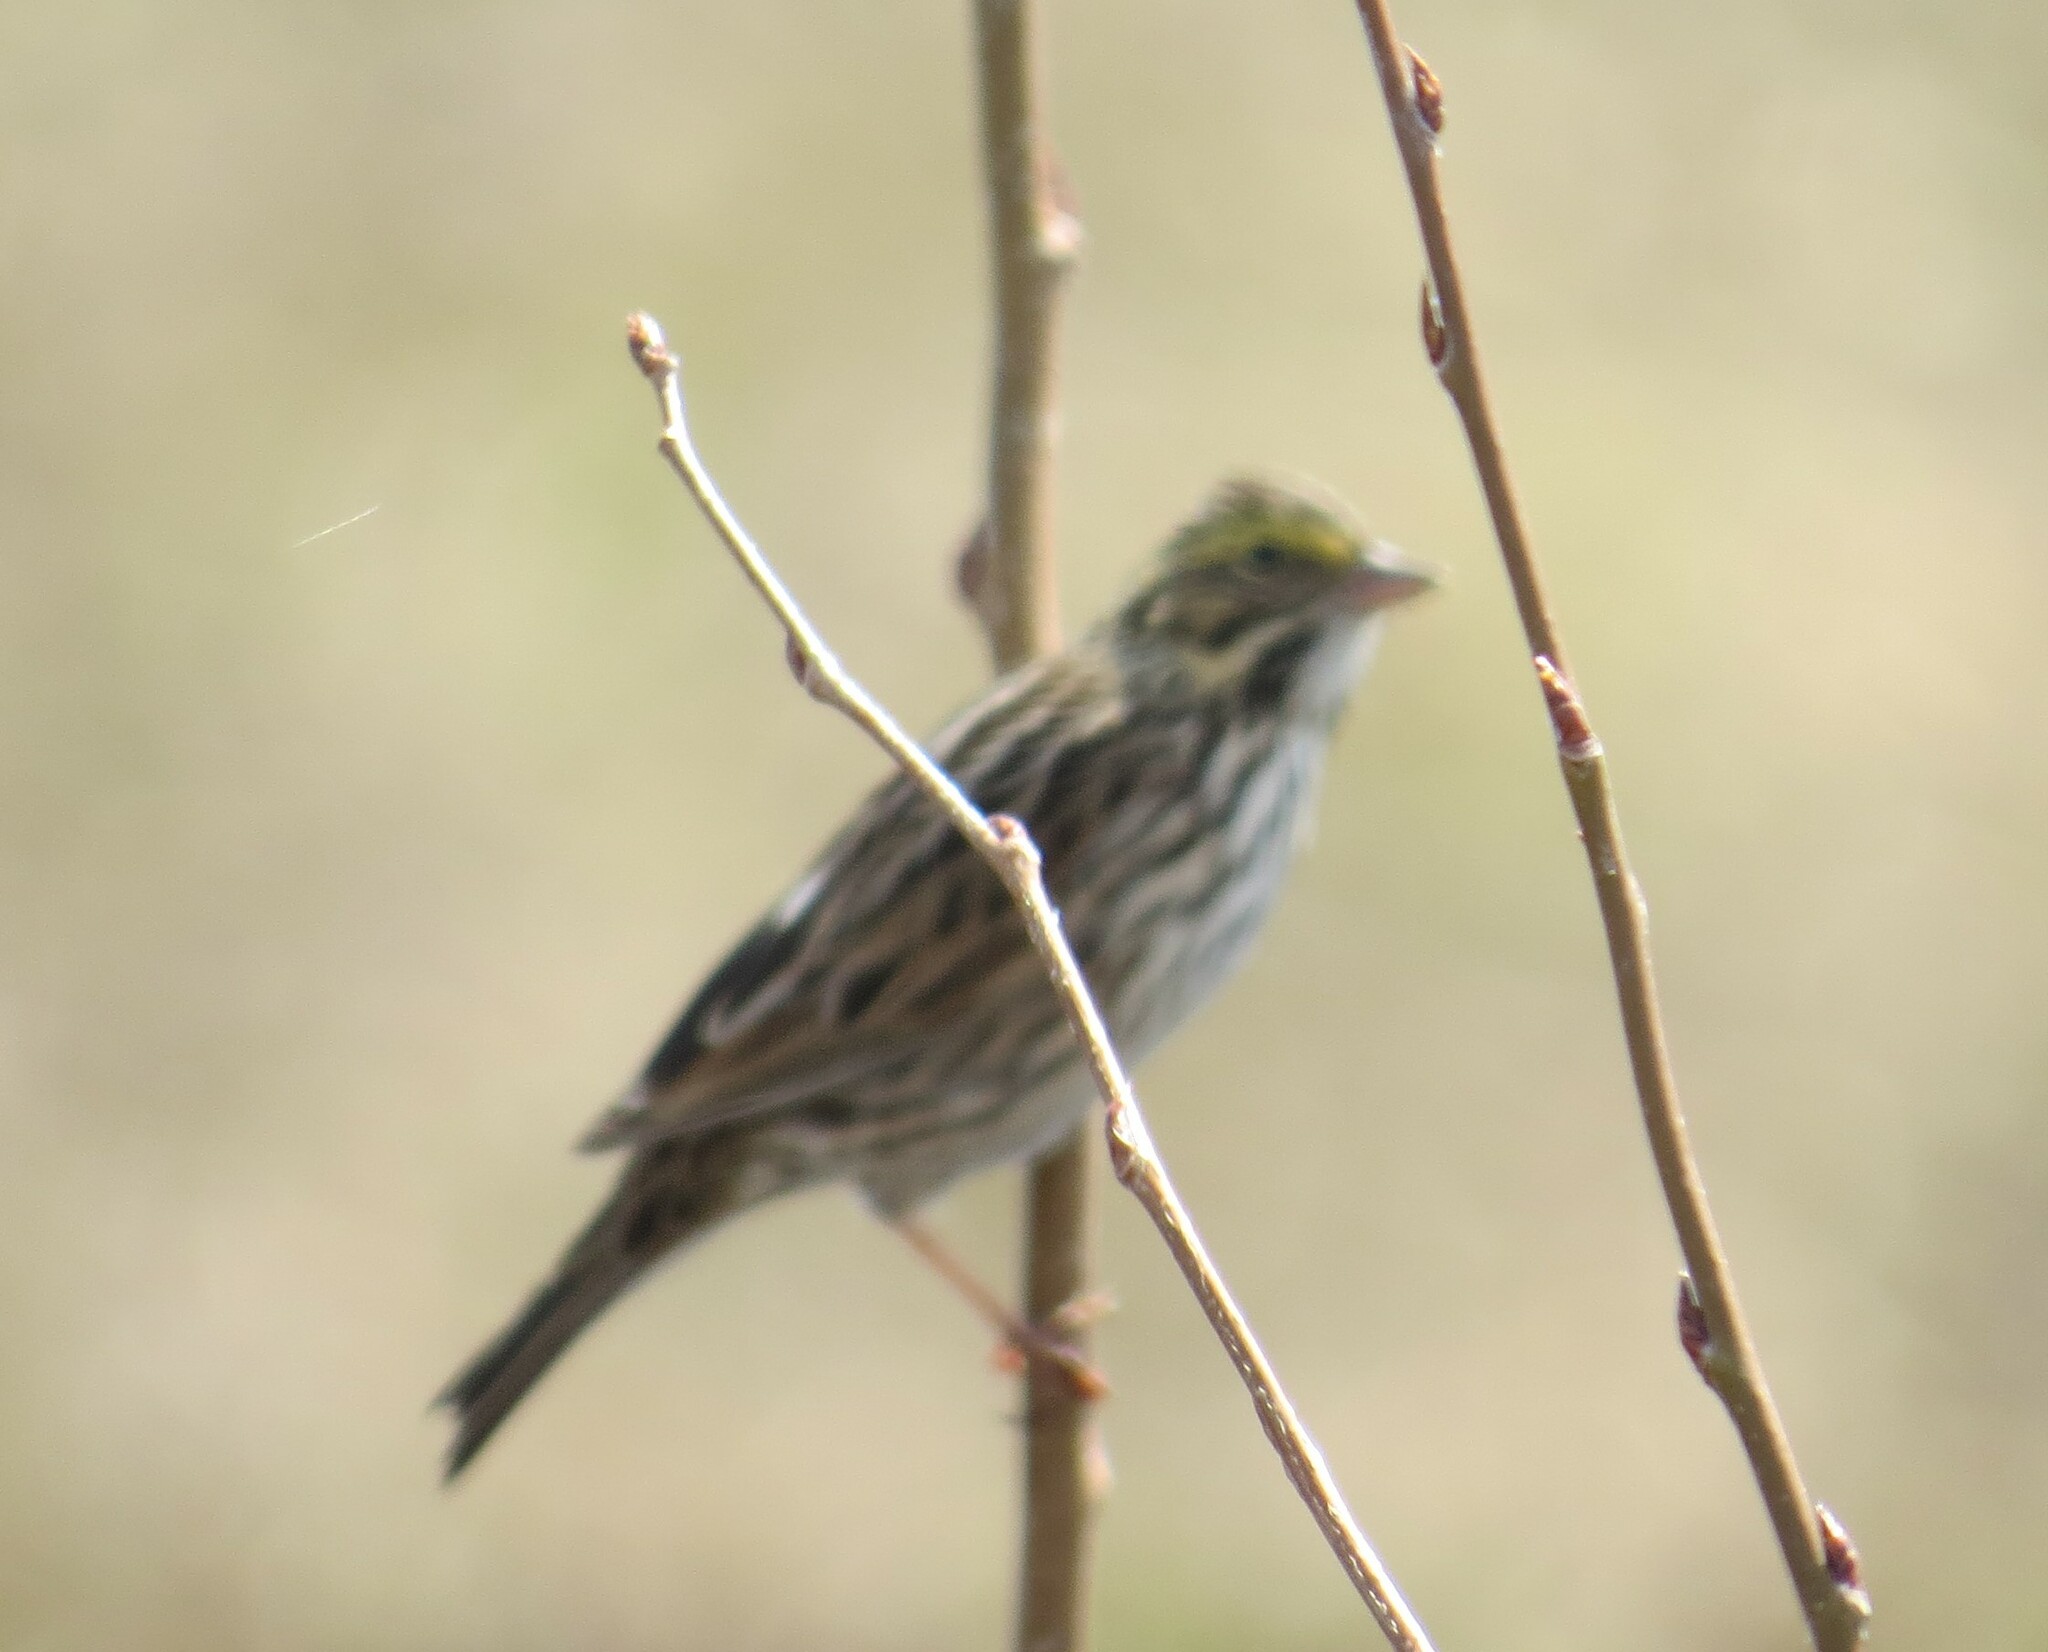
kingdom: Animalia
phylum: Chordata
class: Aves
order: Passeriformes
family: Passerellidae
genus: Passerculus
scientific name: Passerculus sandwichensis
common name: Savannah sparrow
